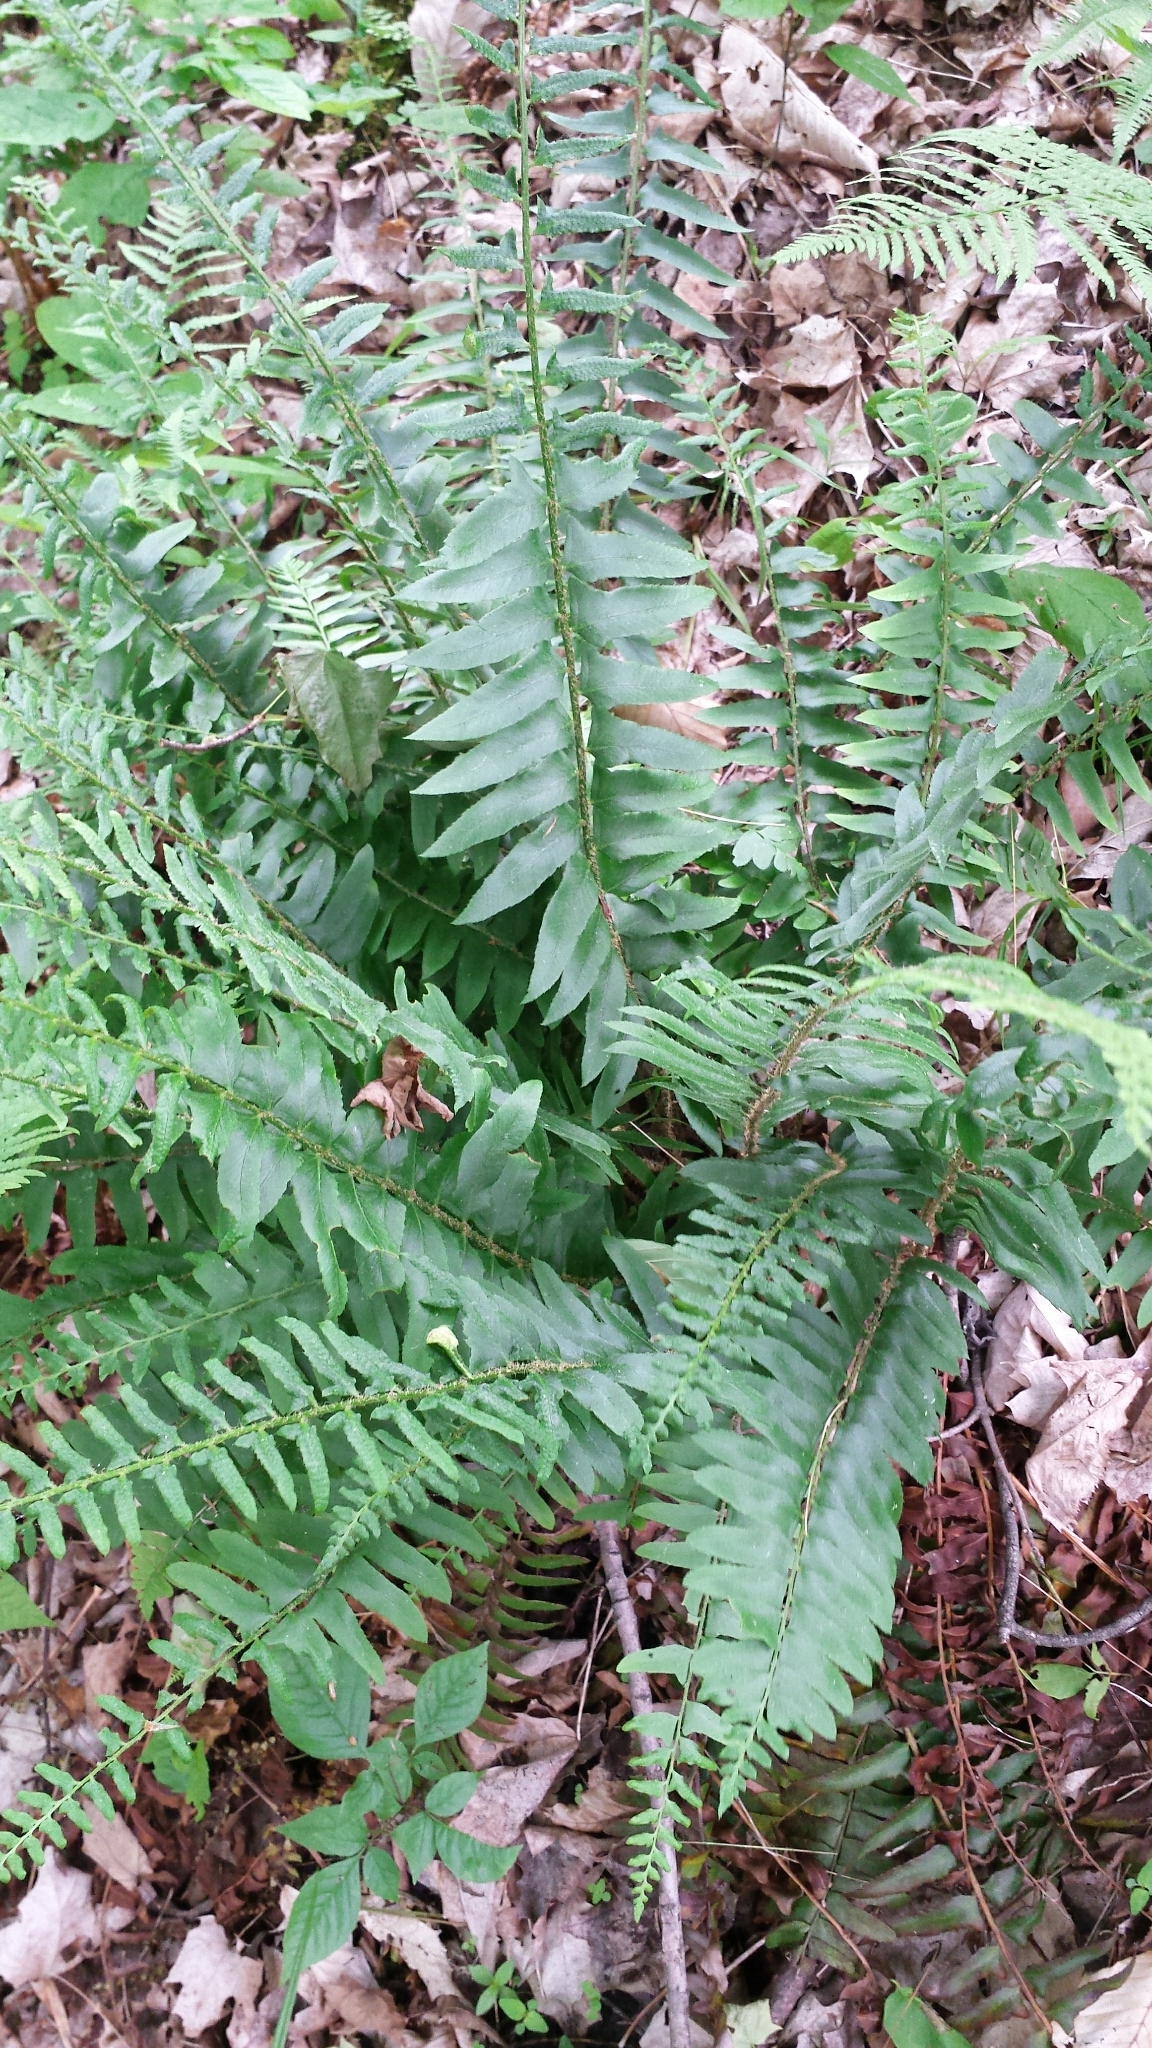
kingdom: Plantae
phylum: Tracheophyta
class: Polypodiopsida
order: Polypodiales
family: Dryopteridaceae
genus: Polystichum
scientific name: Polystichum acrostichoides
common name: Christmas fern
